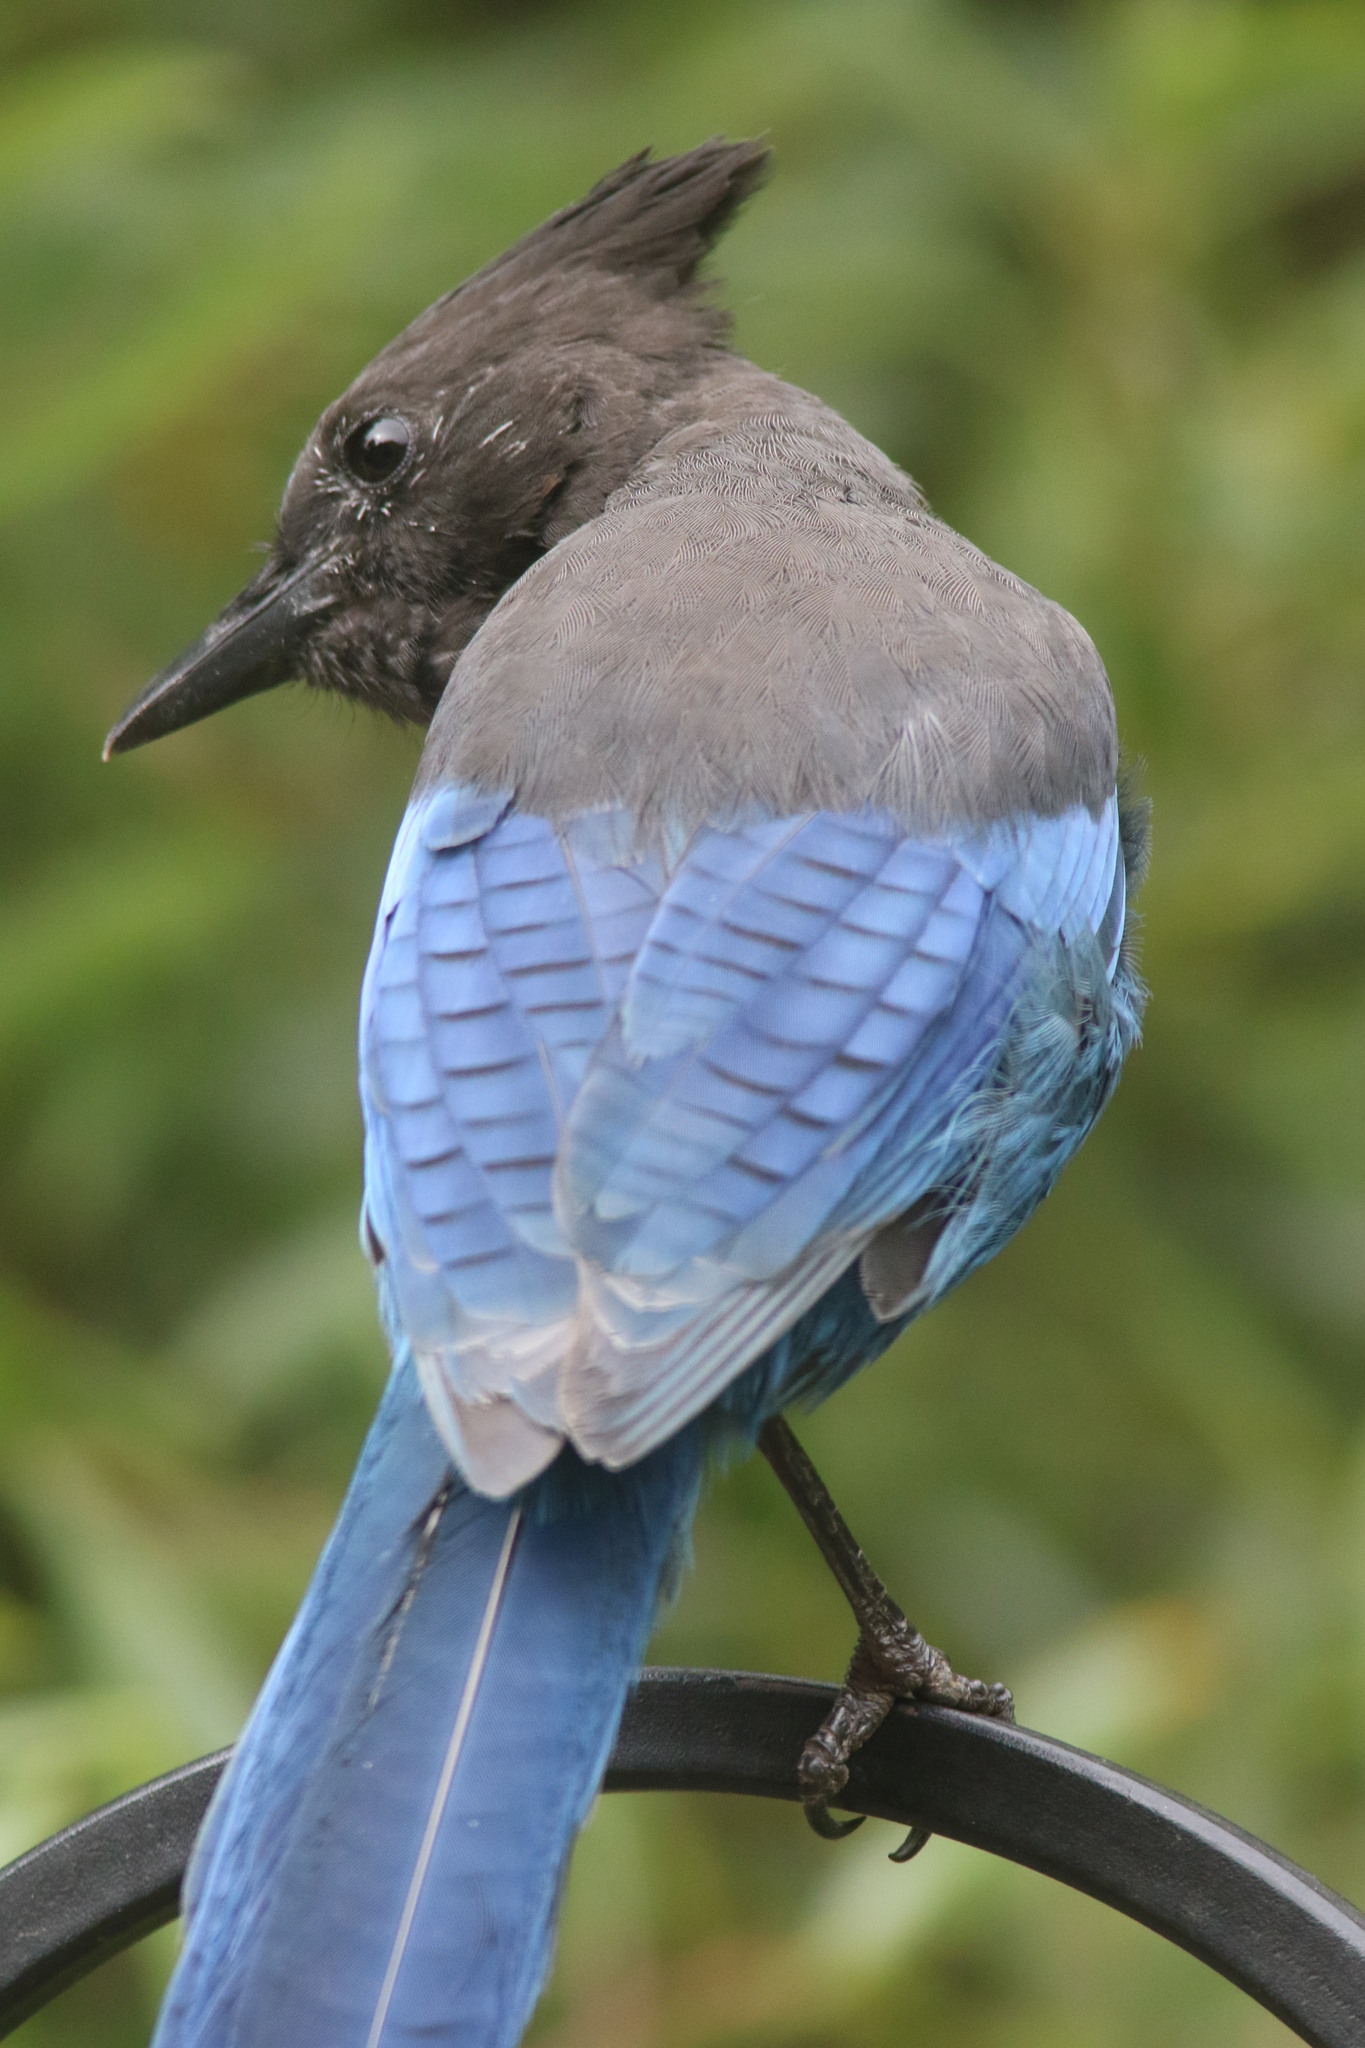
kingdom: Animalia
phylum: Chordata
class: Aves
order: Passeriformes
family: Corvidae
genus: Cyanocitta
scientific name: Cyanocitta stelleri
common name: Steller's jay
